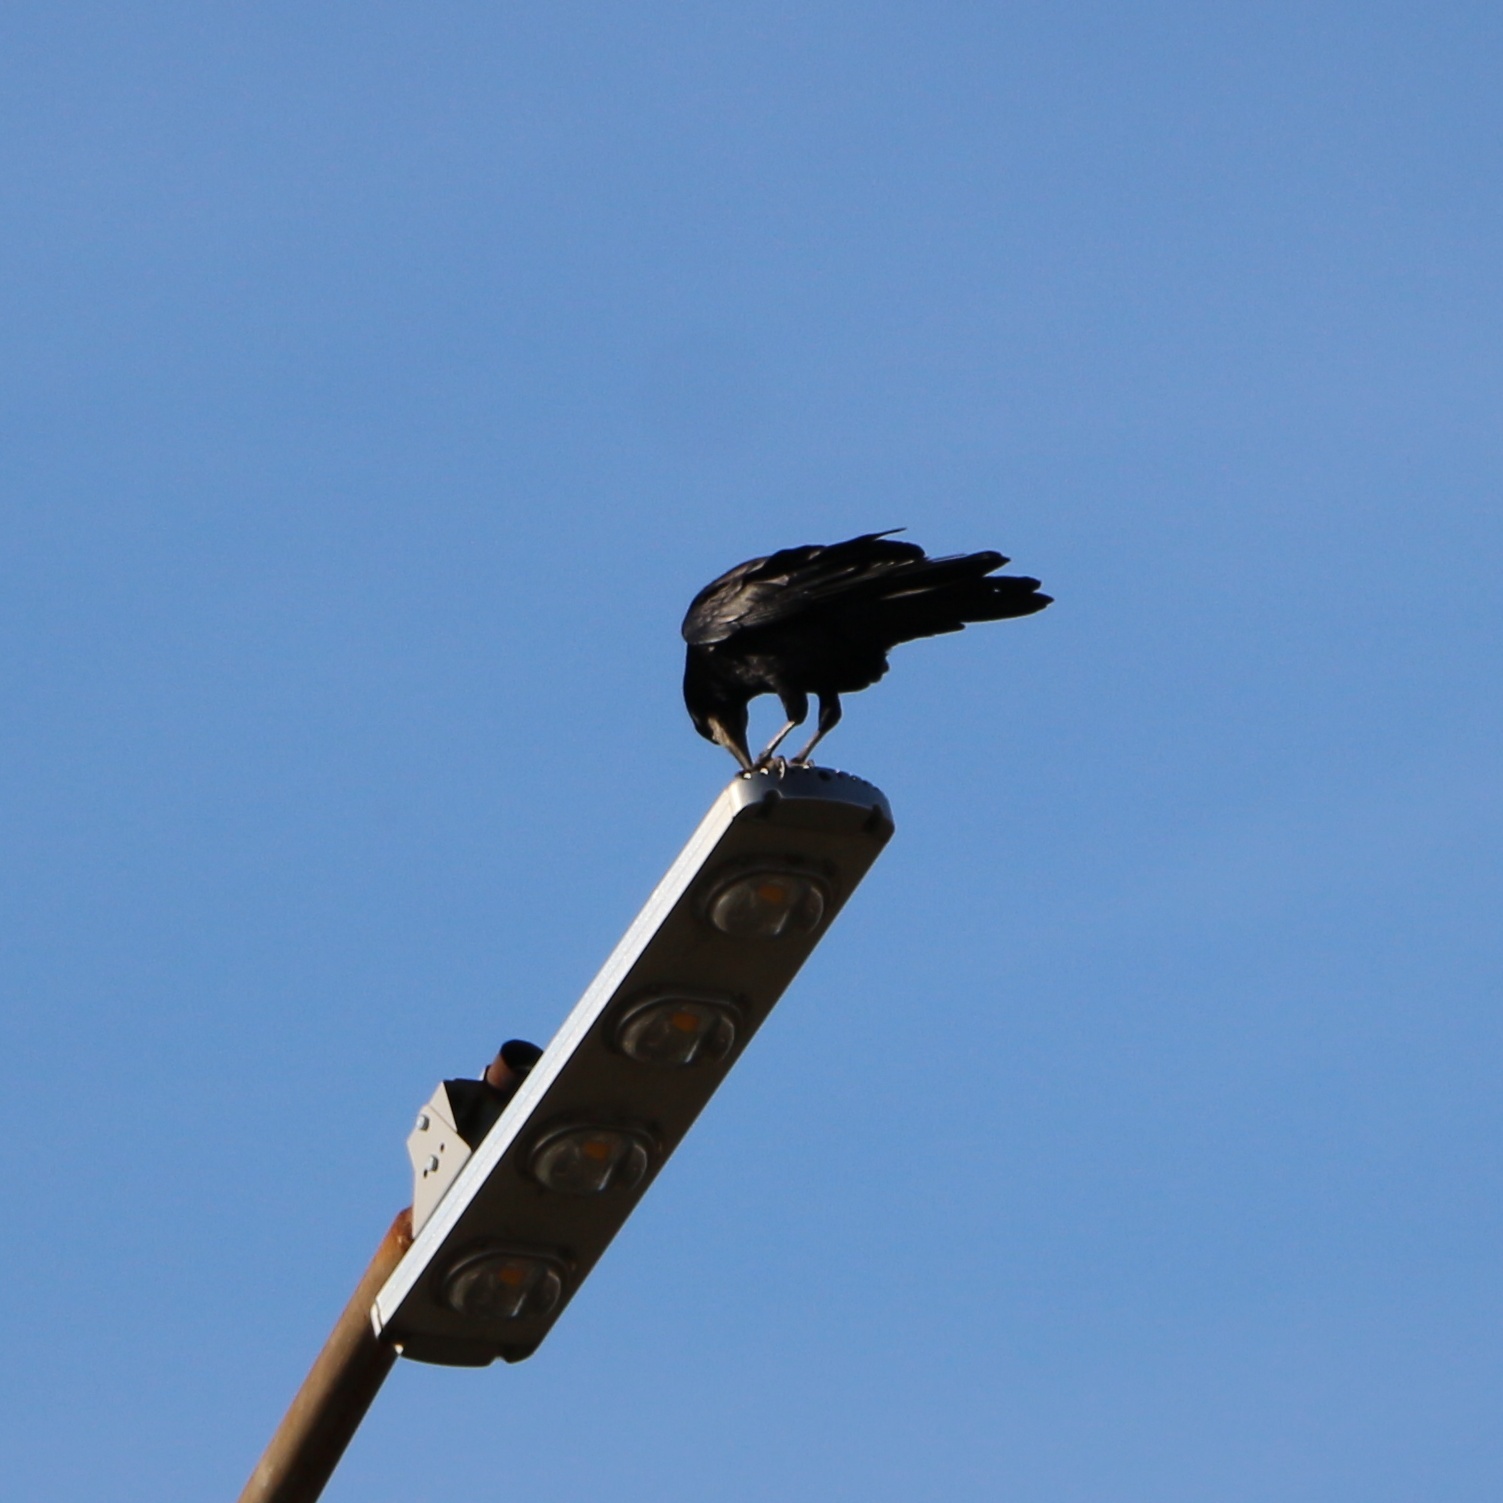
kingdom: Animalia
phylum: Chordata
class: Aves
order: Passeriformes
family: Corvidae
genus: Corvus
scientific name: Corvus frugilegus
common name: Rook
